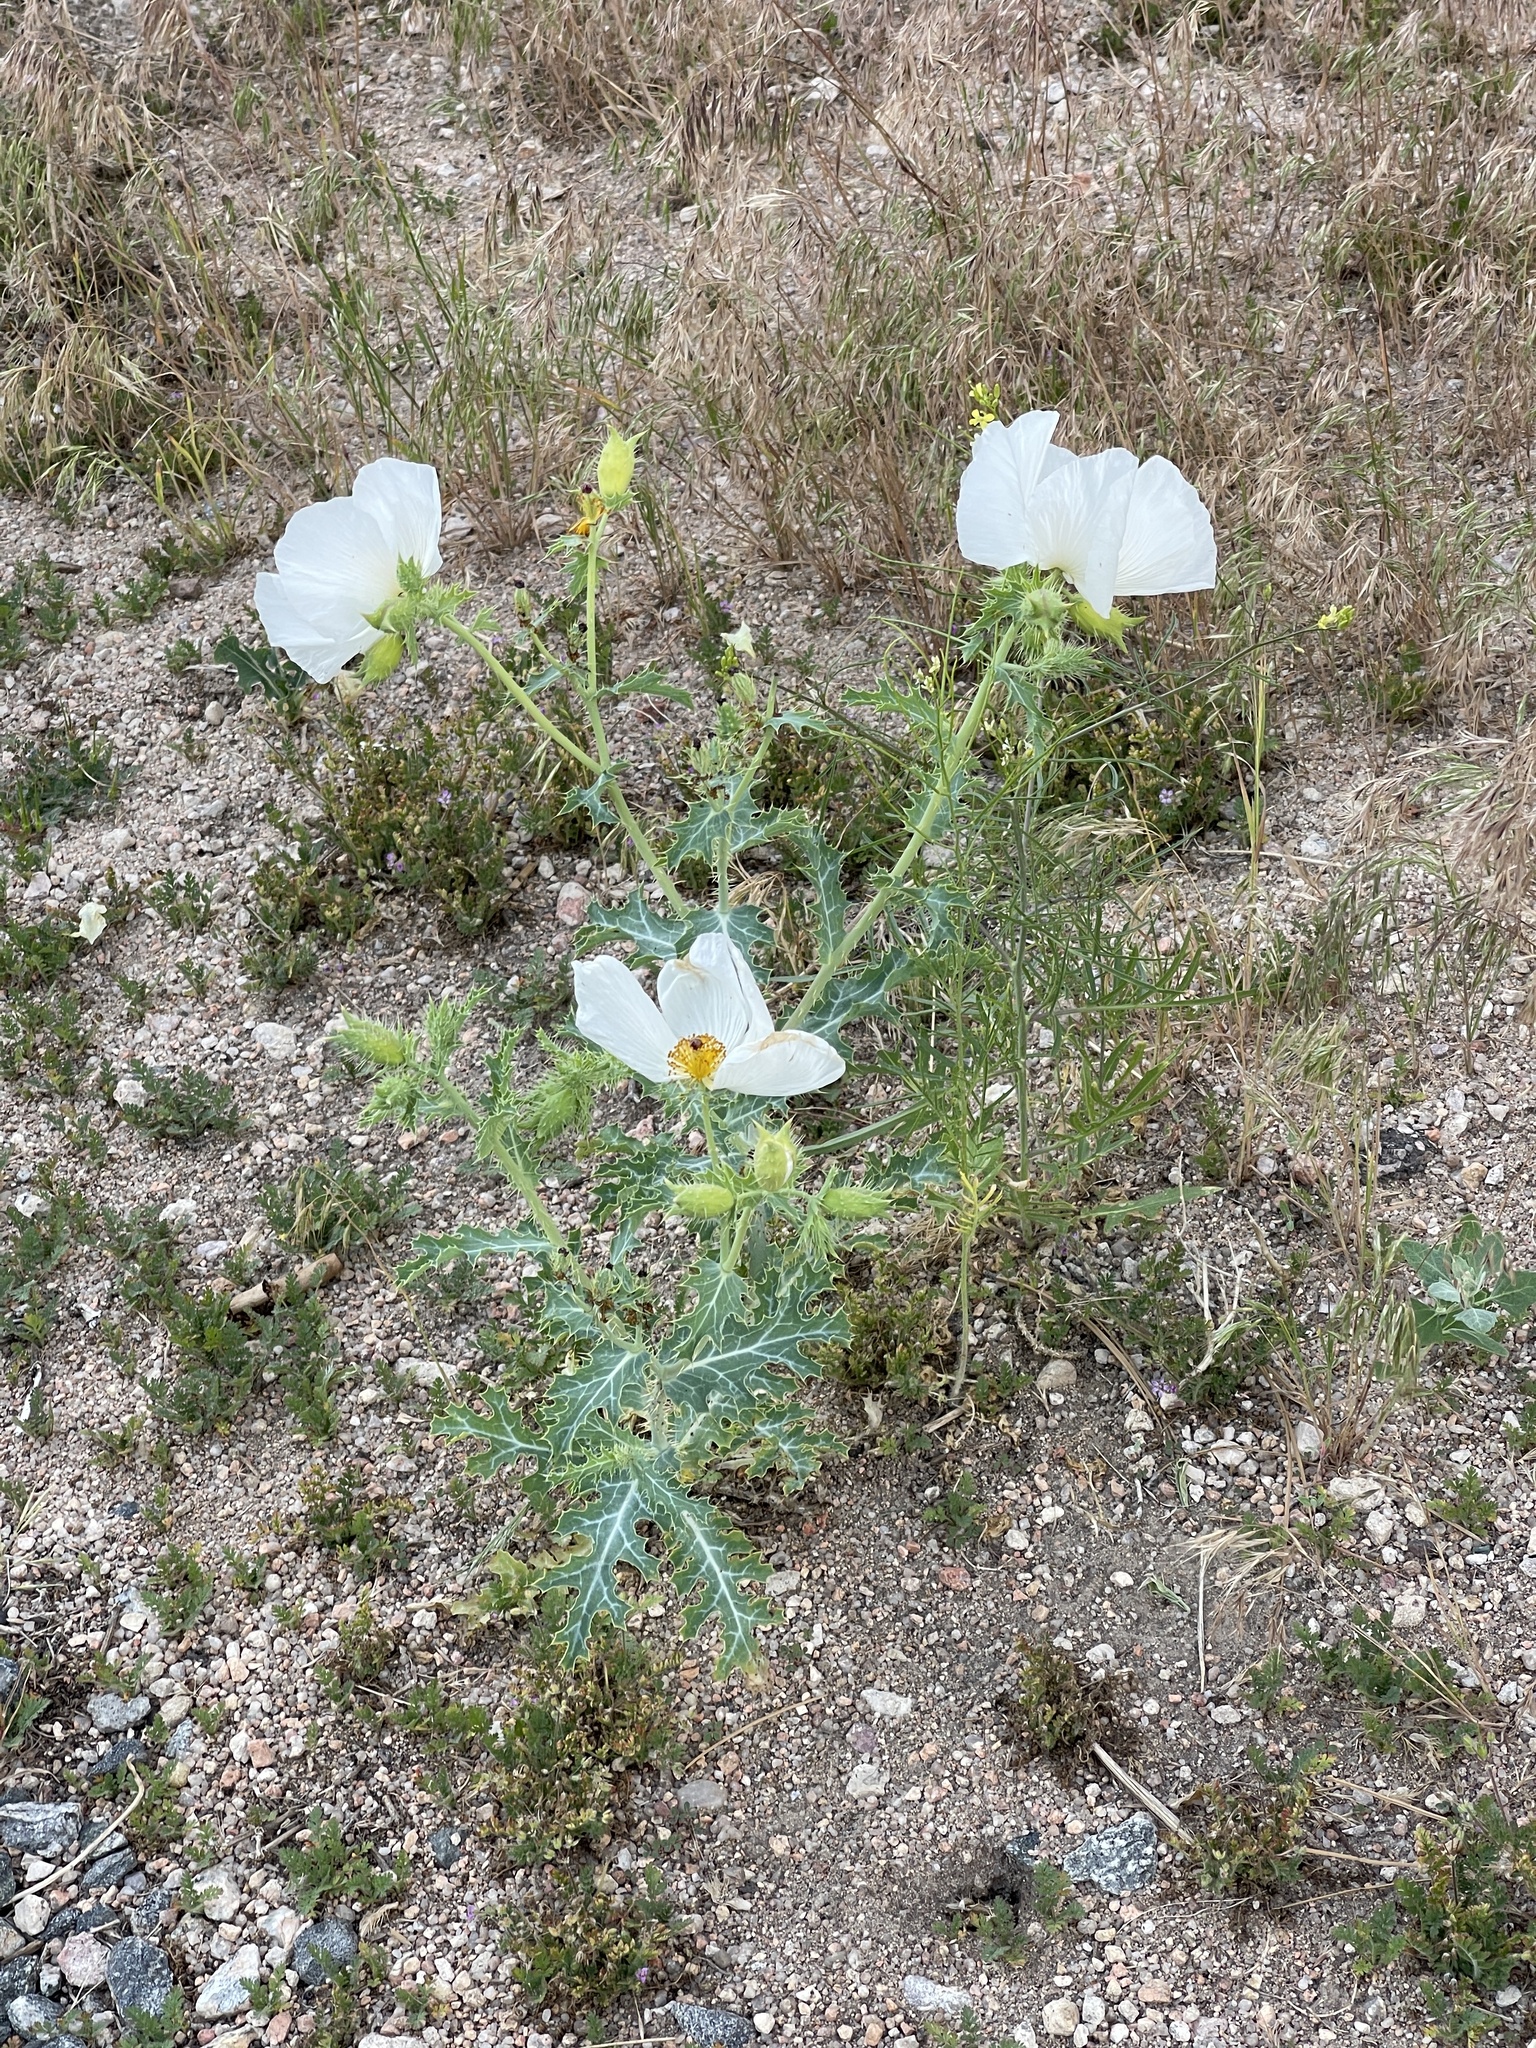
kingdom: Plantae
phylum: Tracheophyta
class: Magnoliopsida
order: Ranunculales
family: Papaveraceae
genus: Argemone
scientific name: Argemone polyanthemos
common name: Plains prickly-poppy
